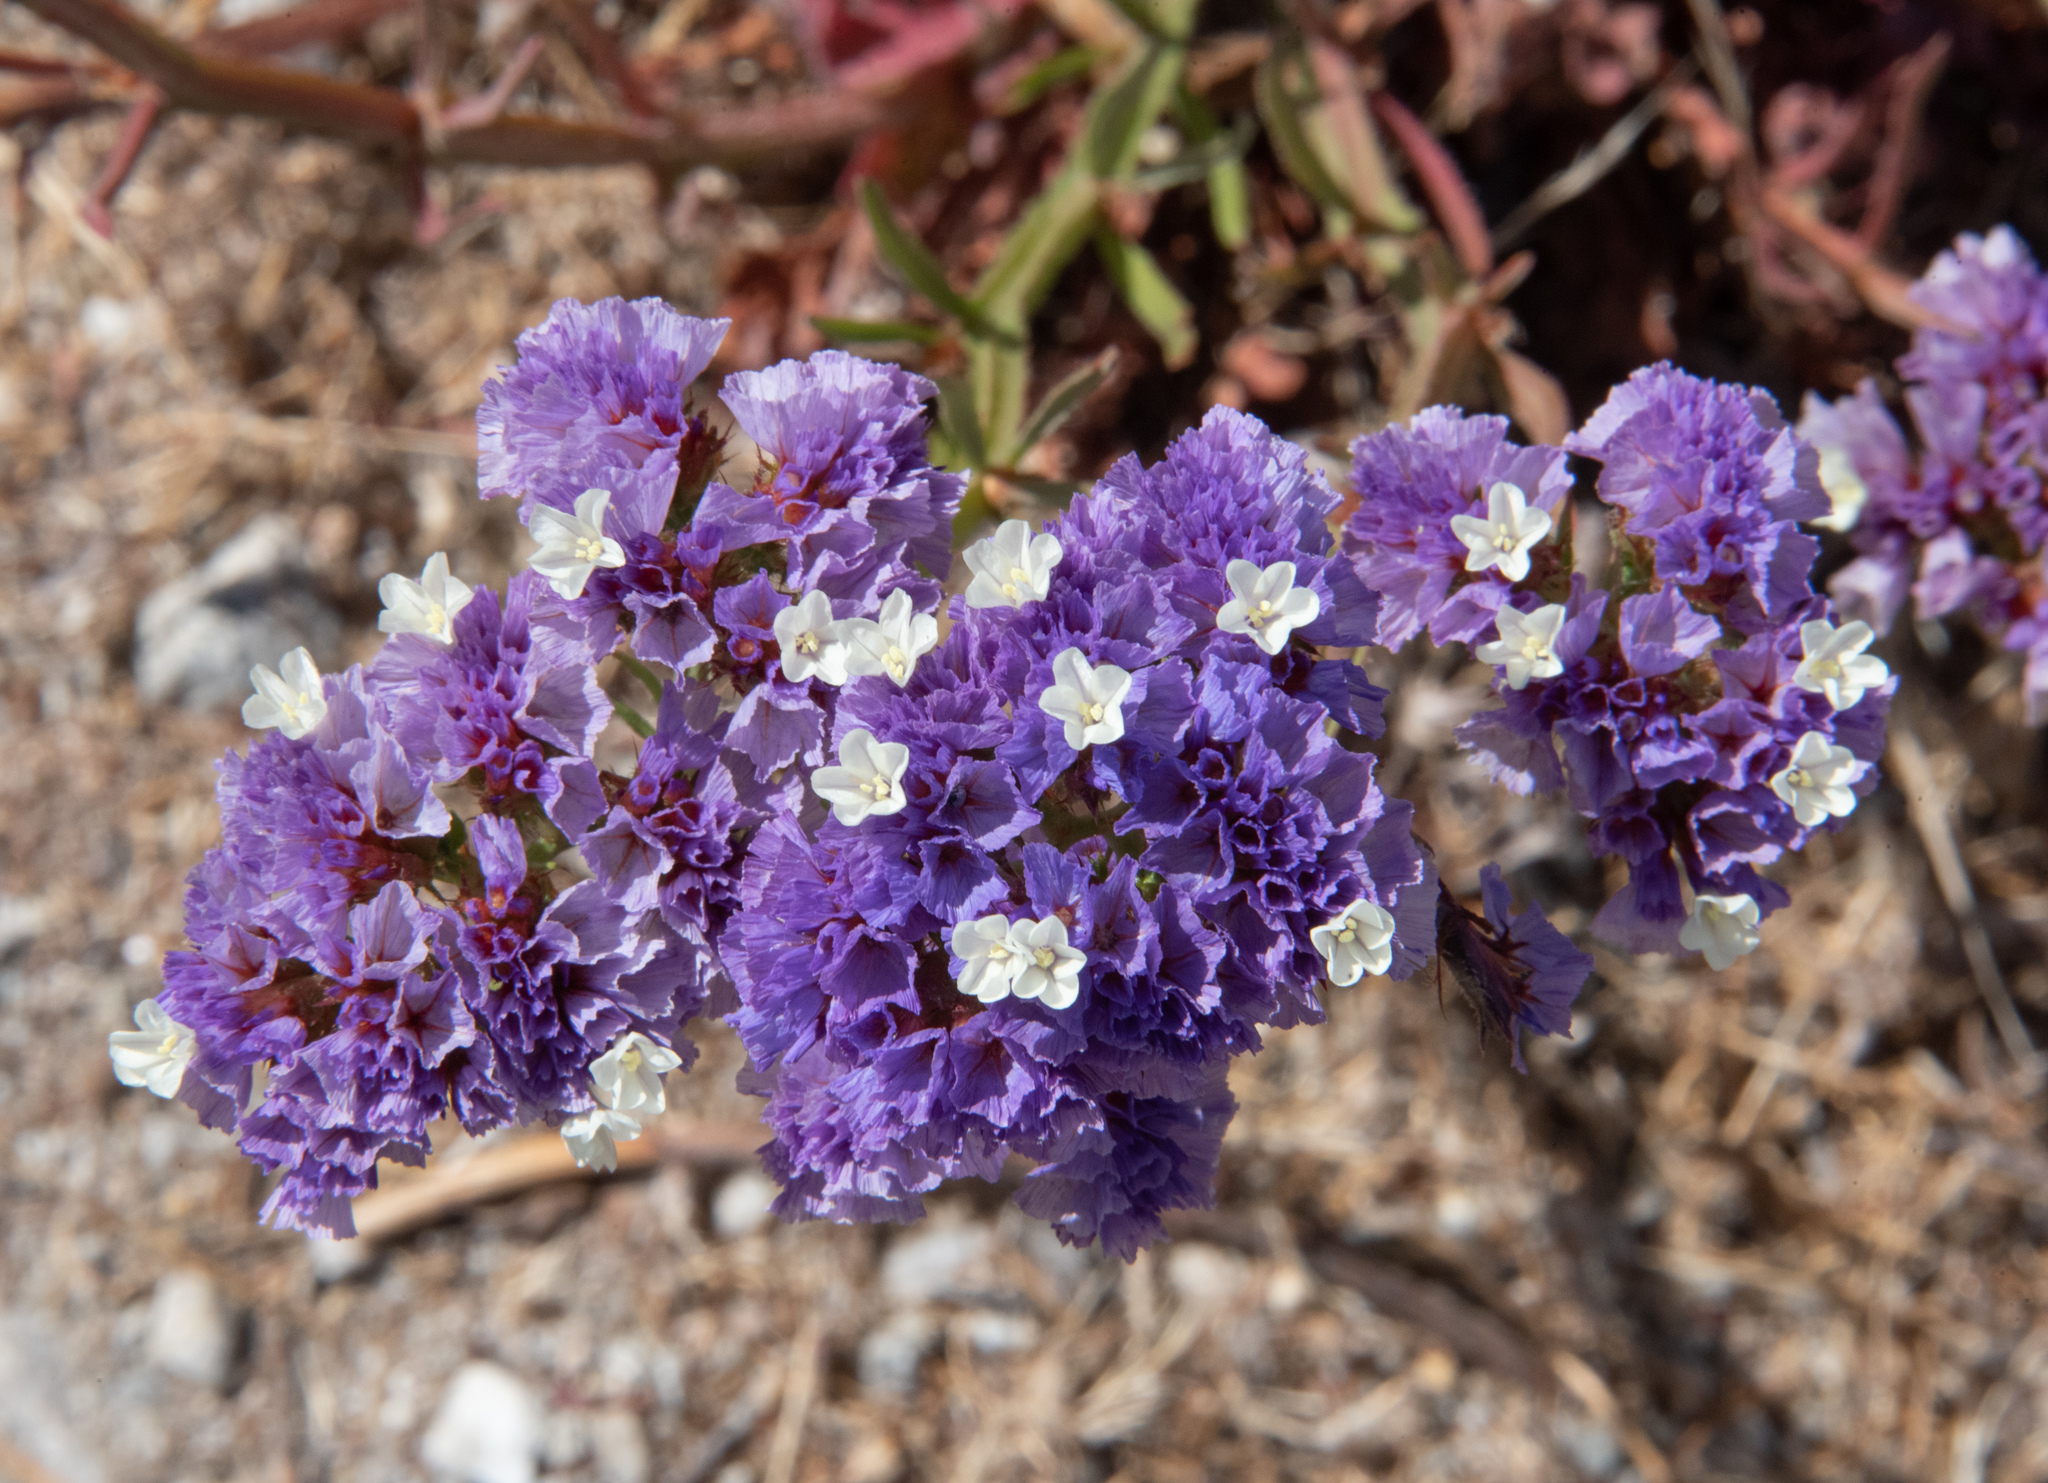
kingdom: Plantae
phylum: Tracheophyta
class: Magnoliopsida
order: Caryophyllales
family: Plumbaginaceae
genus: Limonium
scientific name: Limonium sinuatum
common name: Statice
